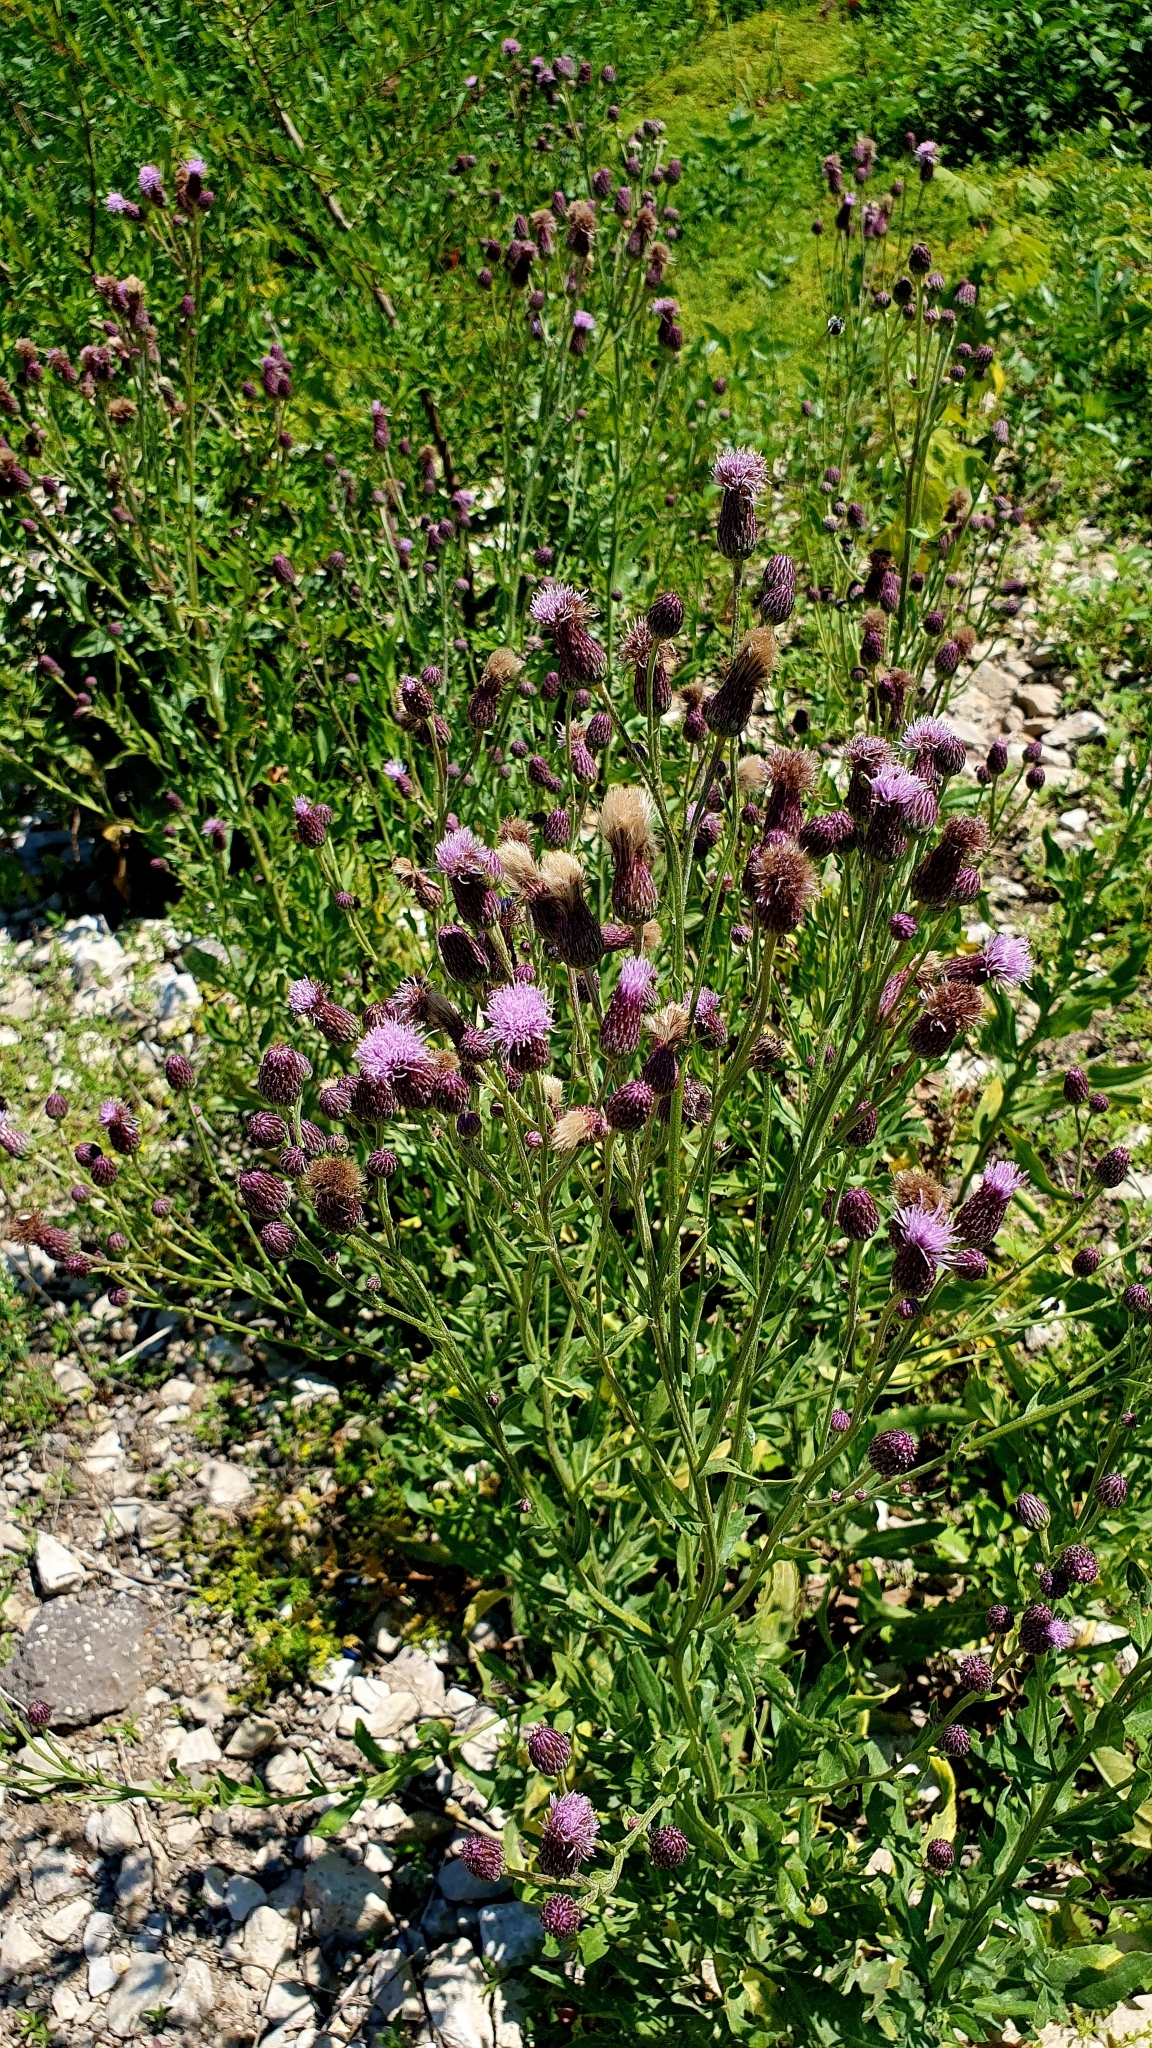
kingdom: Plantae
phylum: Tracheophyta
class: Magnoliopsida
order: Asterales
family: Asteraceae
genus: Cirsium
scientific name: Cirsium arvense
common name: Creeping thistle
